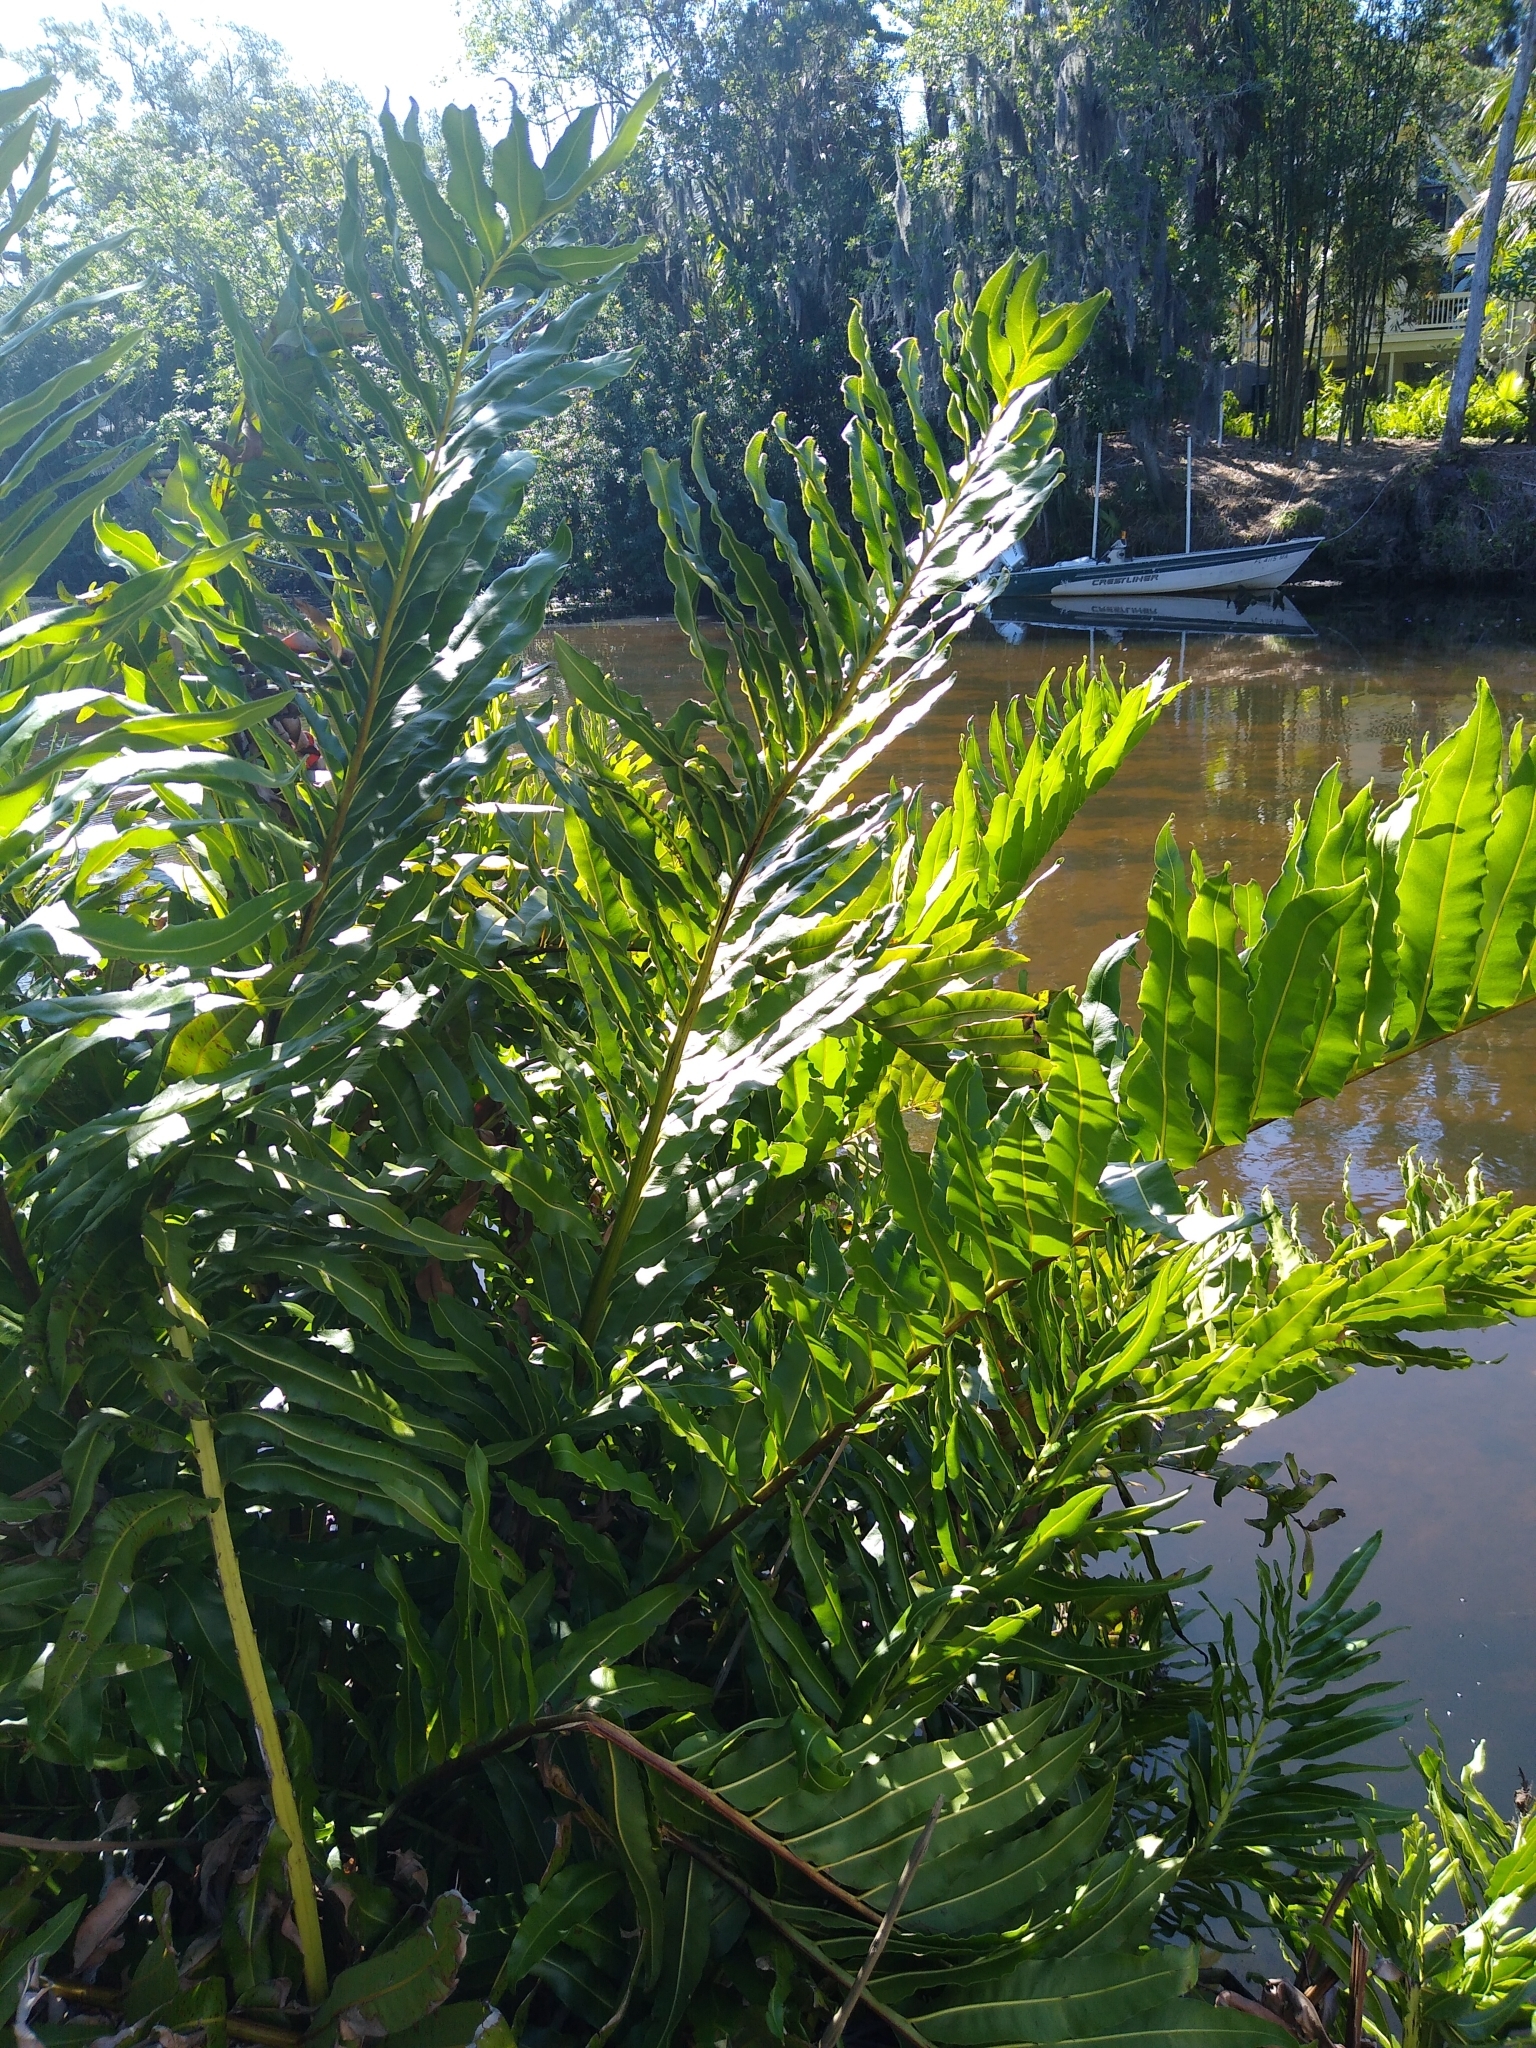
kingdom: Plantae
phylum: Tracheophyta
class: Polypodiopsida
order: Polypodiales
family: Pteridaceae
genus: Acrostichum
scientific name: Acrostichum danaeifolium
